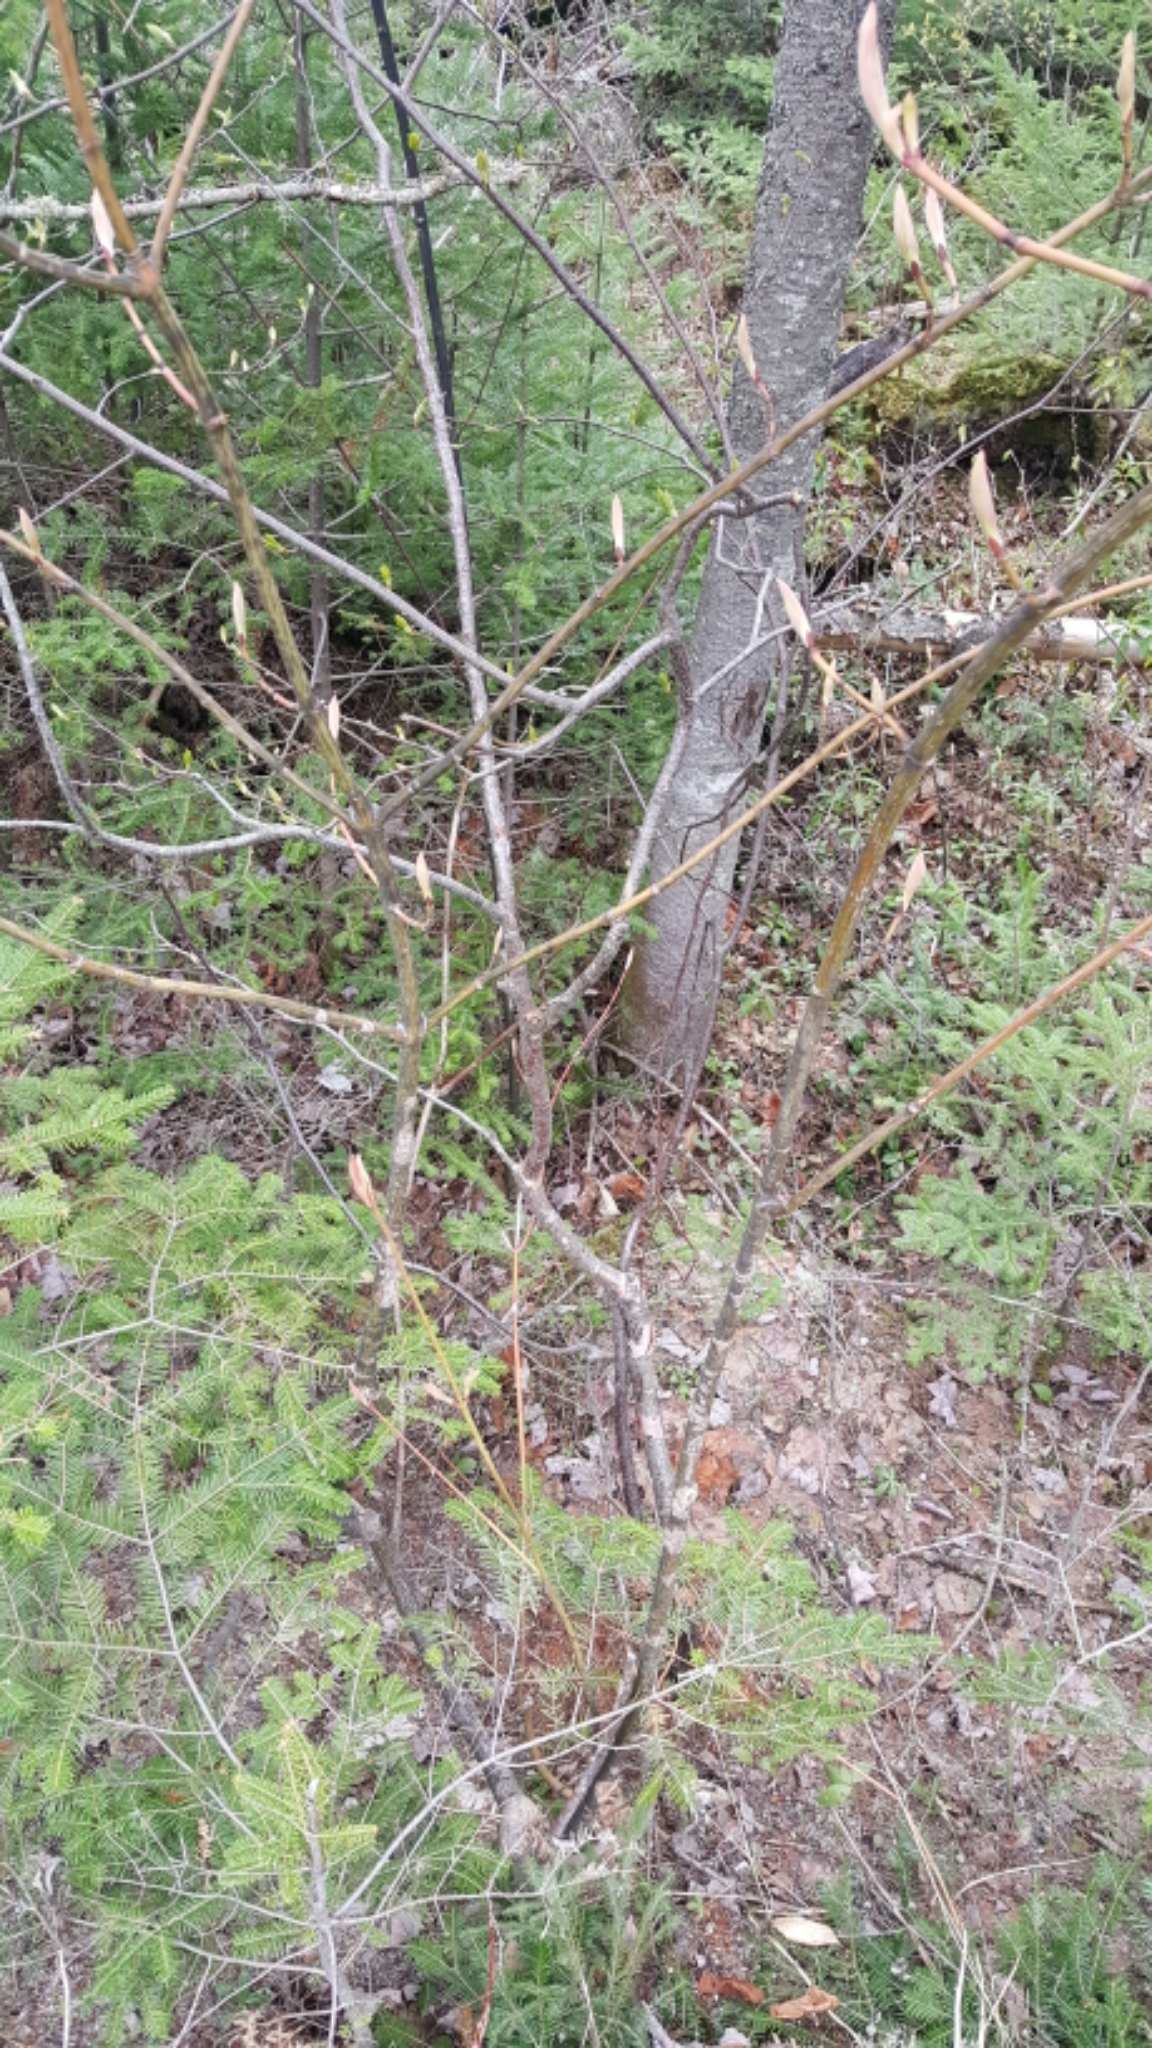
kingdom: Plantae
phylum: Tracheophyta
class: Magnoliopsida
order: Sapindales
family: Sapindaceae
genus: Acer
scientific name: Acer pensylvanicum
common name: Moosewood
